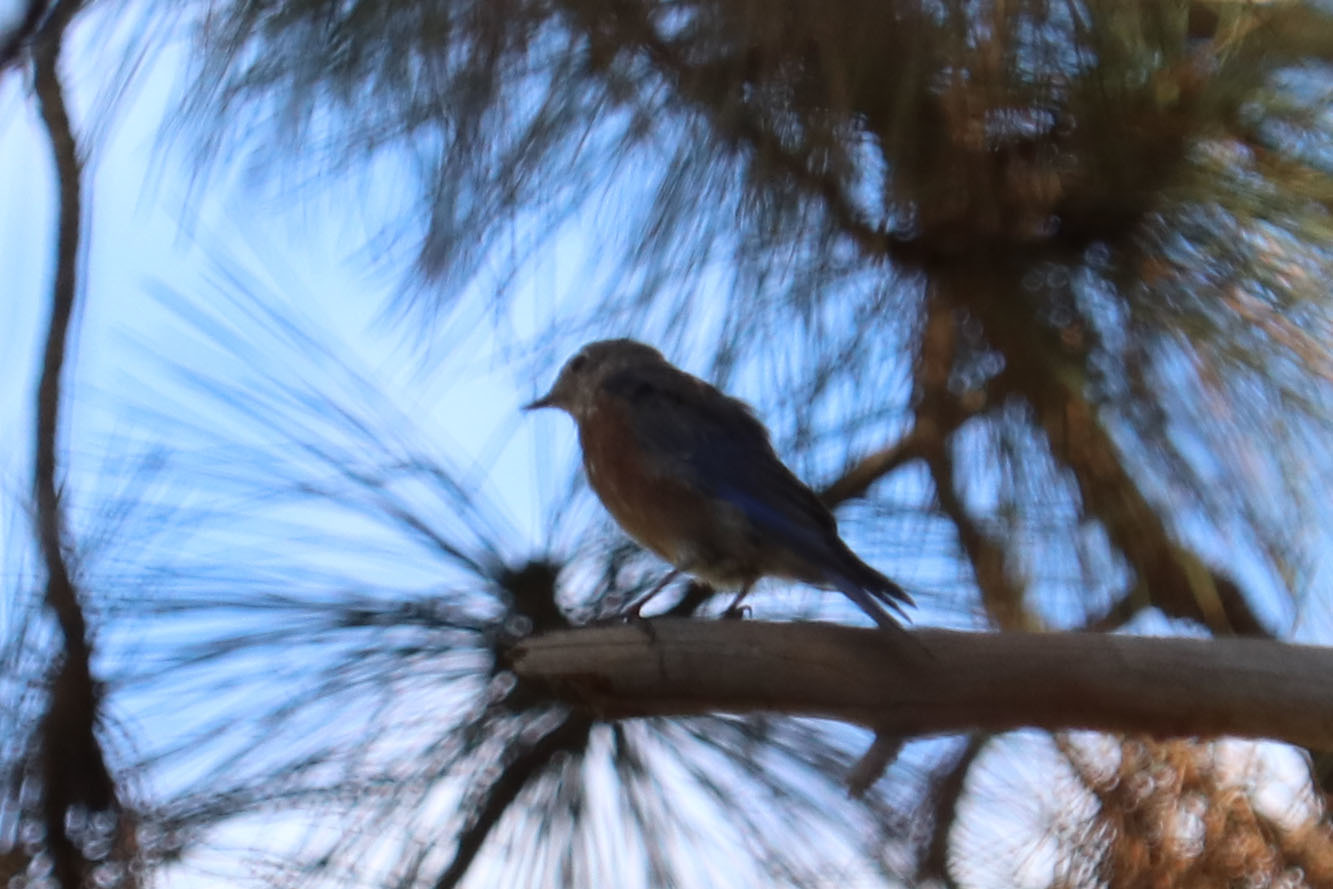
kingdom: Animalia
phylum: Chordata
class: Aves
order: Passeriformes
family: Turdidae
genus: Sialia
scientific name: Sialia mexicana
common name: Western bluebird
